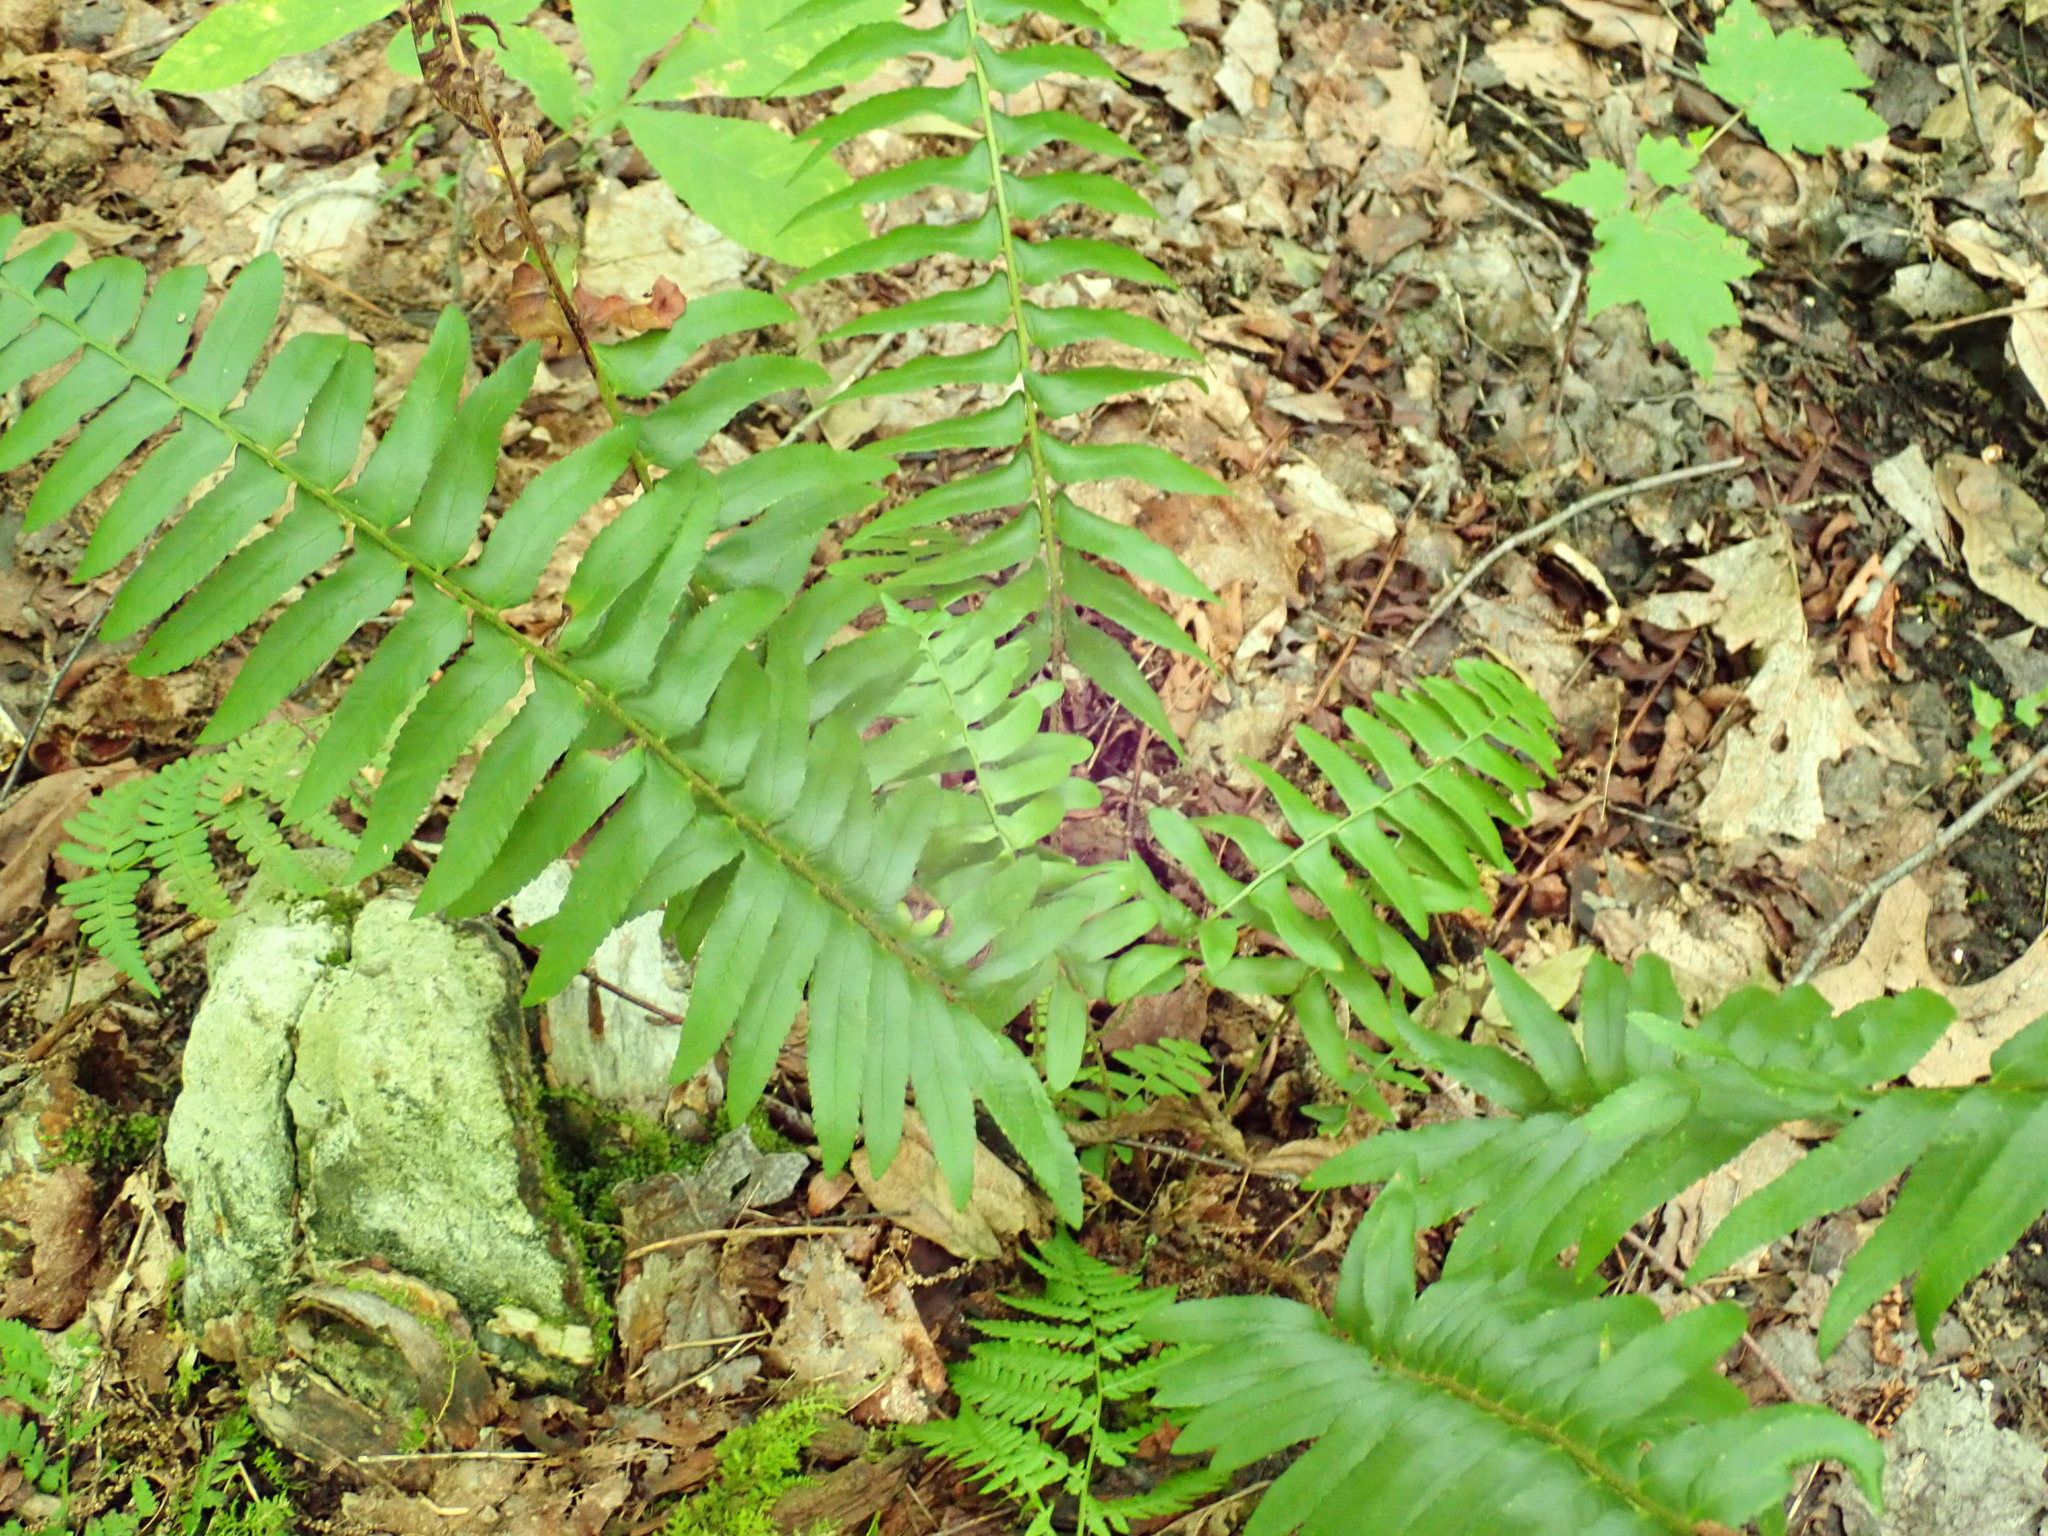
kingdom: Plantae
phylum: Tracheophyta
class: Polypodiopsida
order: Polypodiales
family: Dryopteridaceae
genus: Polystichum
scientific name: Polystichum acrostichoides
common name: Christmas fern
